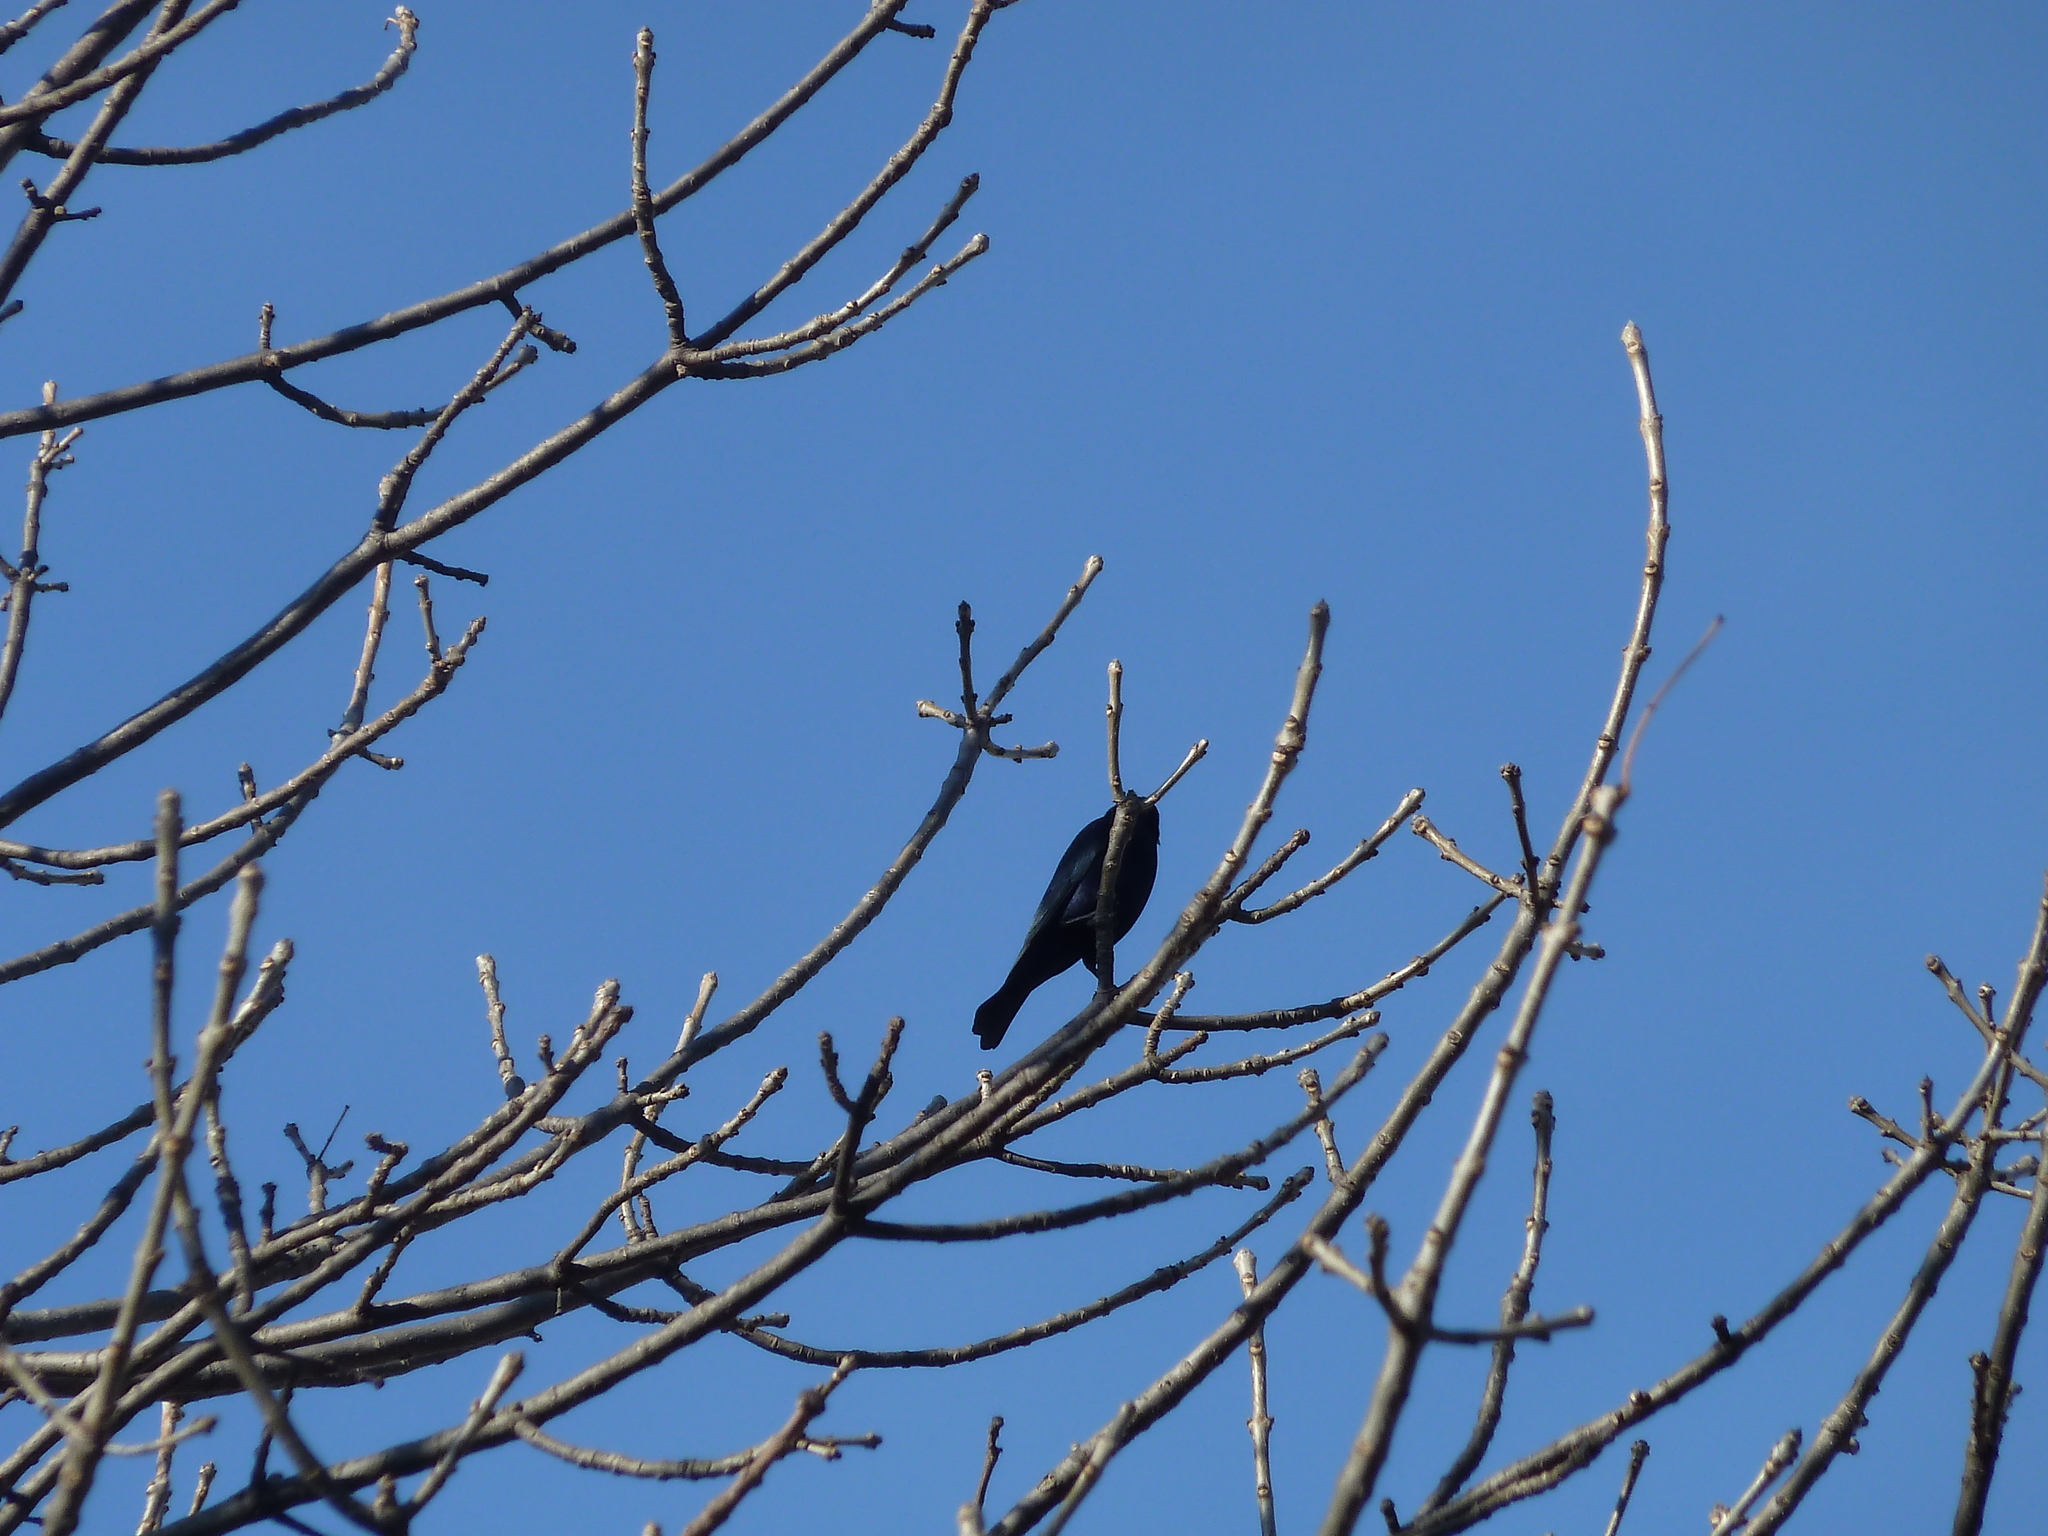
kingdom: Animalia
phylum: Chordata
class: Aves
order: Passeriformes
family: Icteridae
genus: Molothrus
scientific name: Molothrus bonariensis
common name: Shiny cowbird
